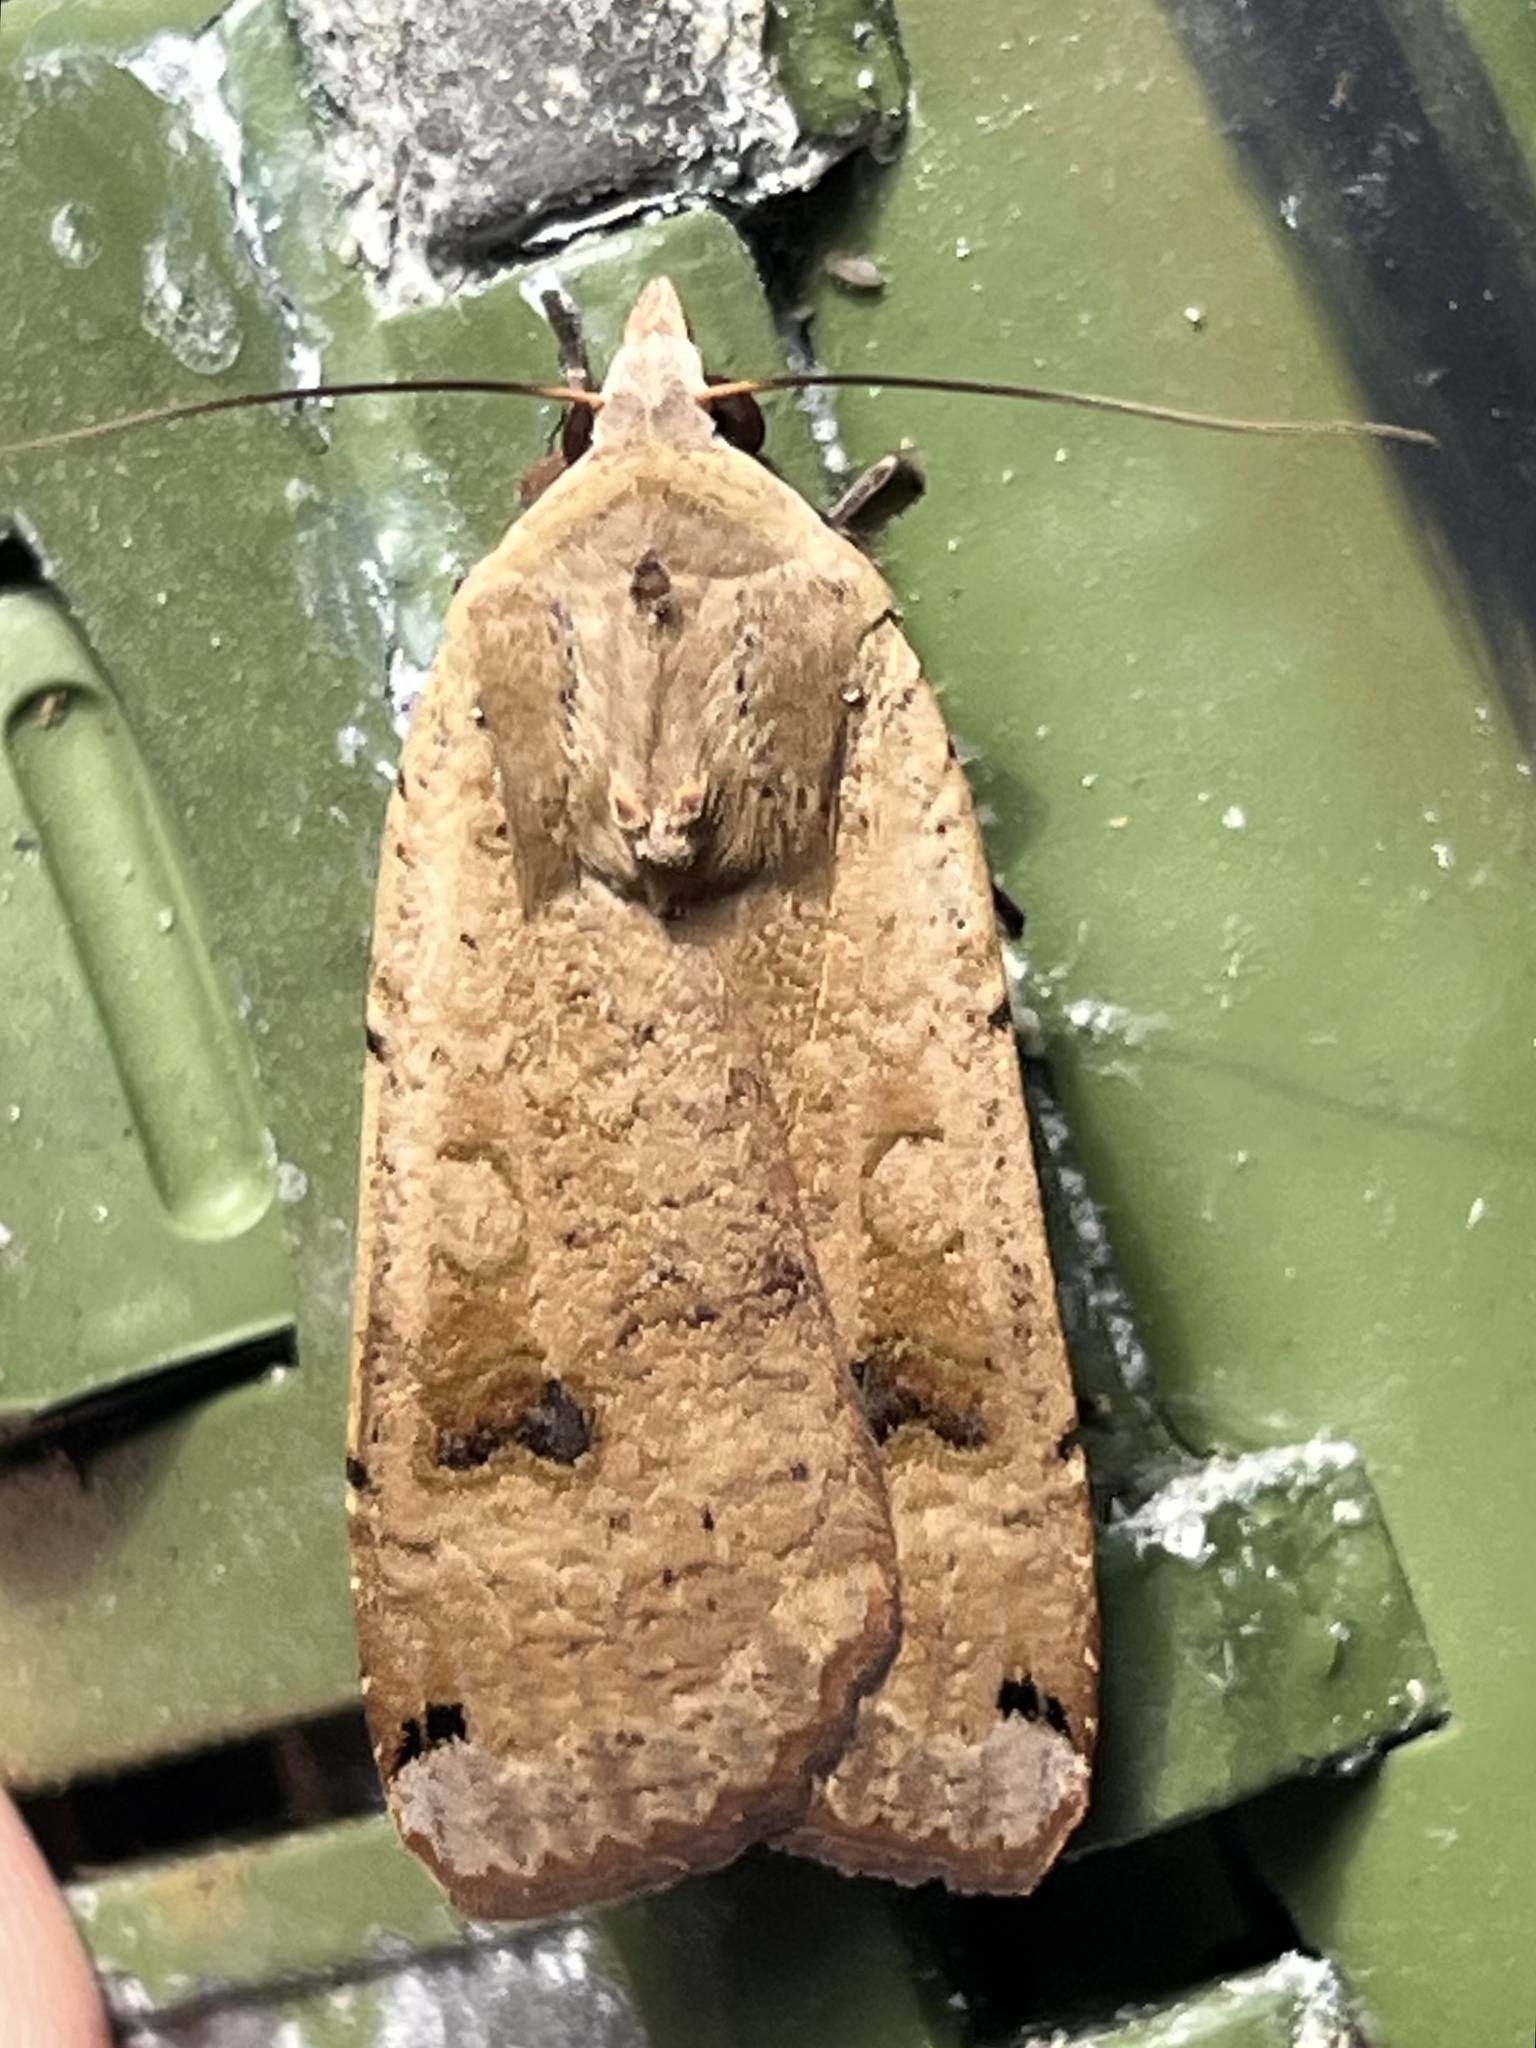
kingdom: Animalia
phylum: Arthropoda
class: Insecta
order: Lepidoptera
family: Noctuidae
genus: Noctua
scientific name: Noctua pronuba
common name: Large yellow underwing
